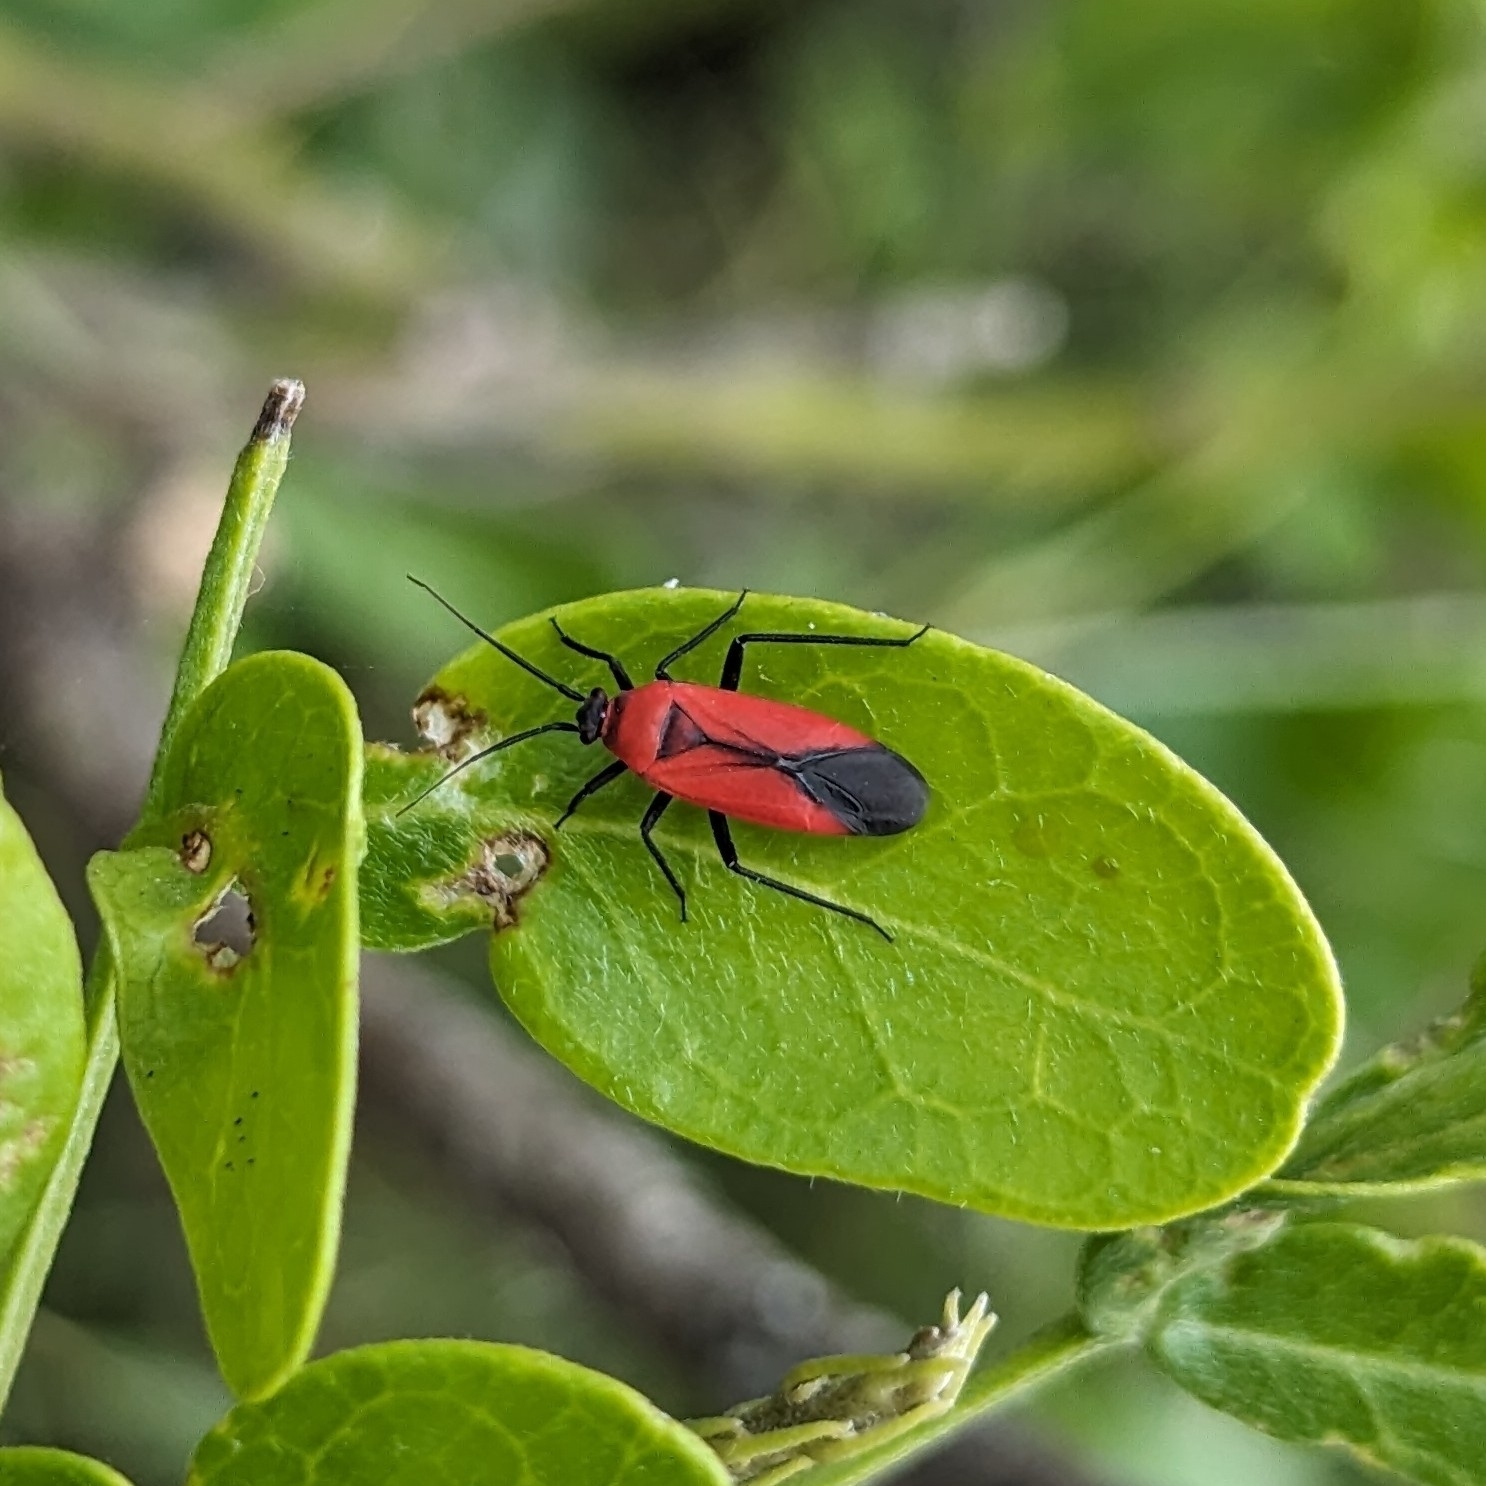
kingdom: Animalia
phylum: Arthropoda
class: Insecta
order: Hemiptera
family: Miridae
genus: Lopidea
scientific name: Lopidea major
